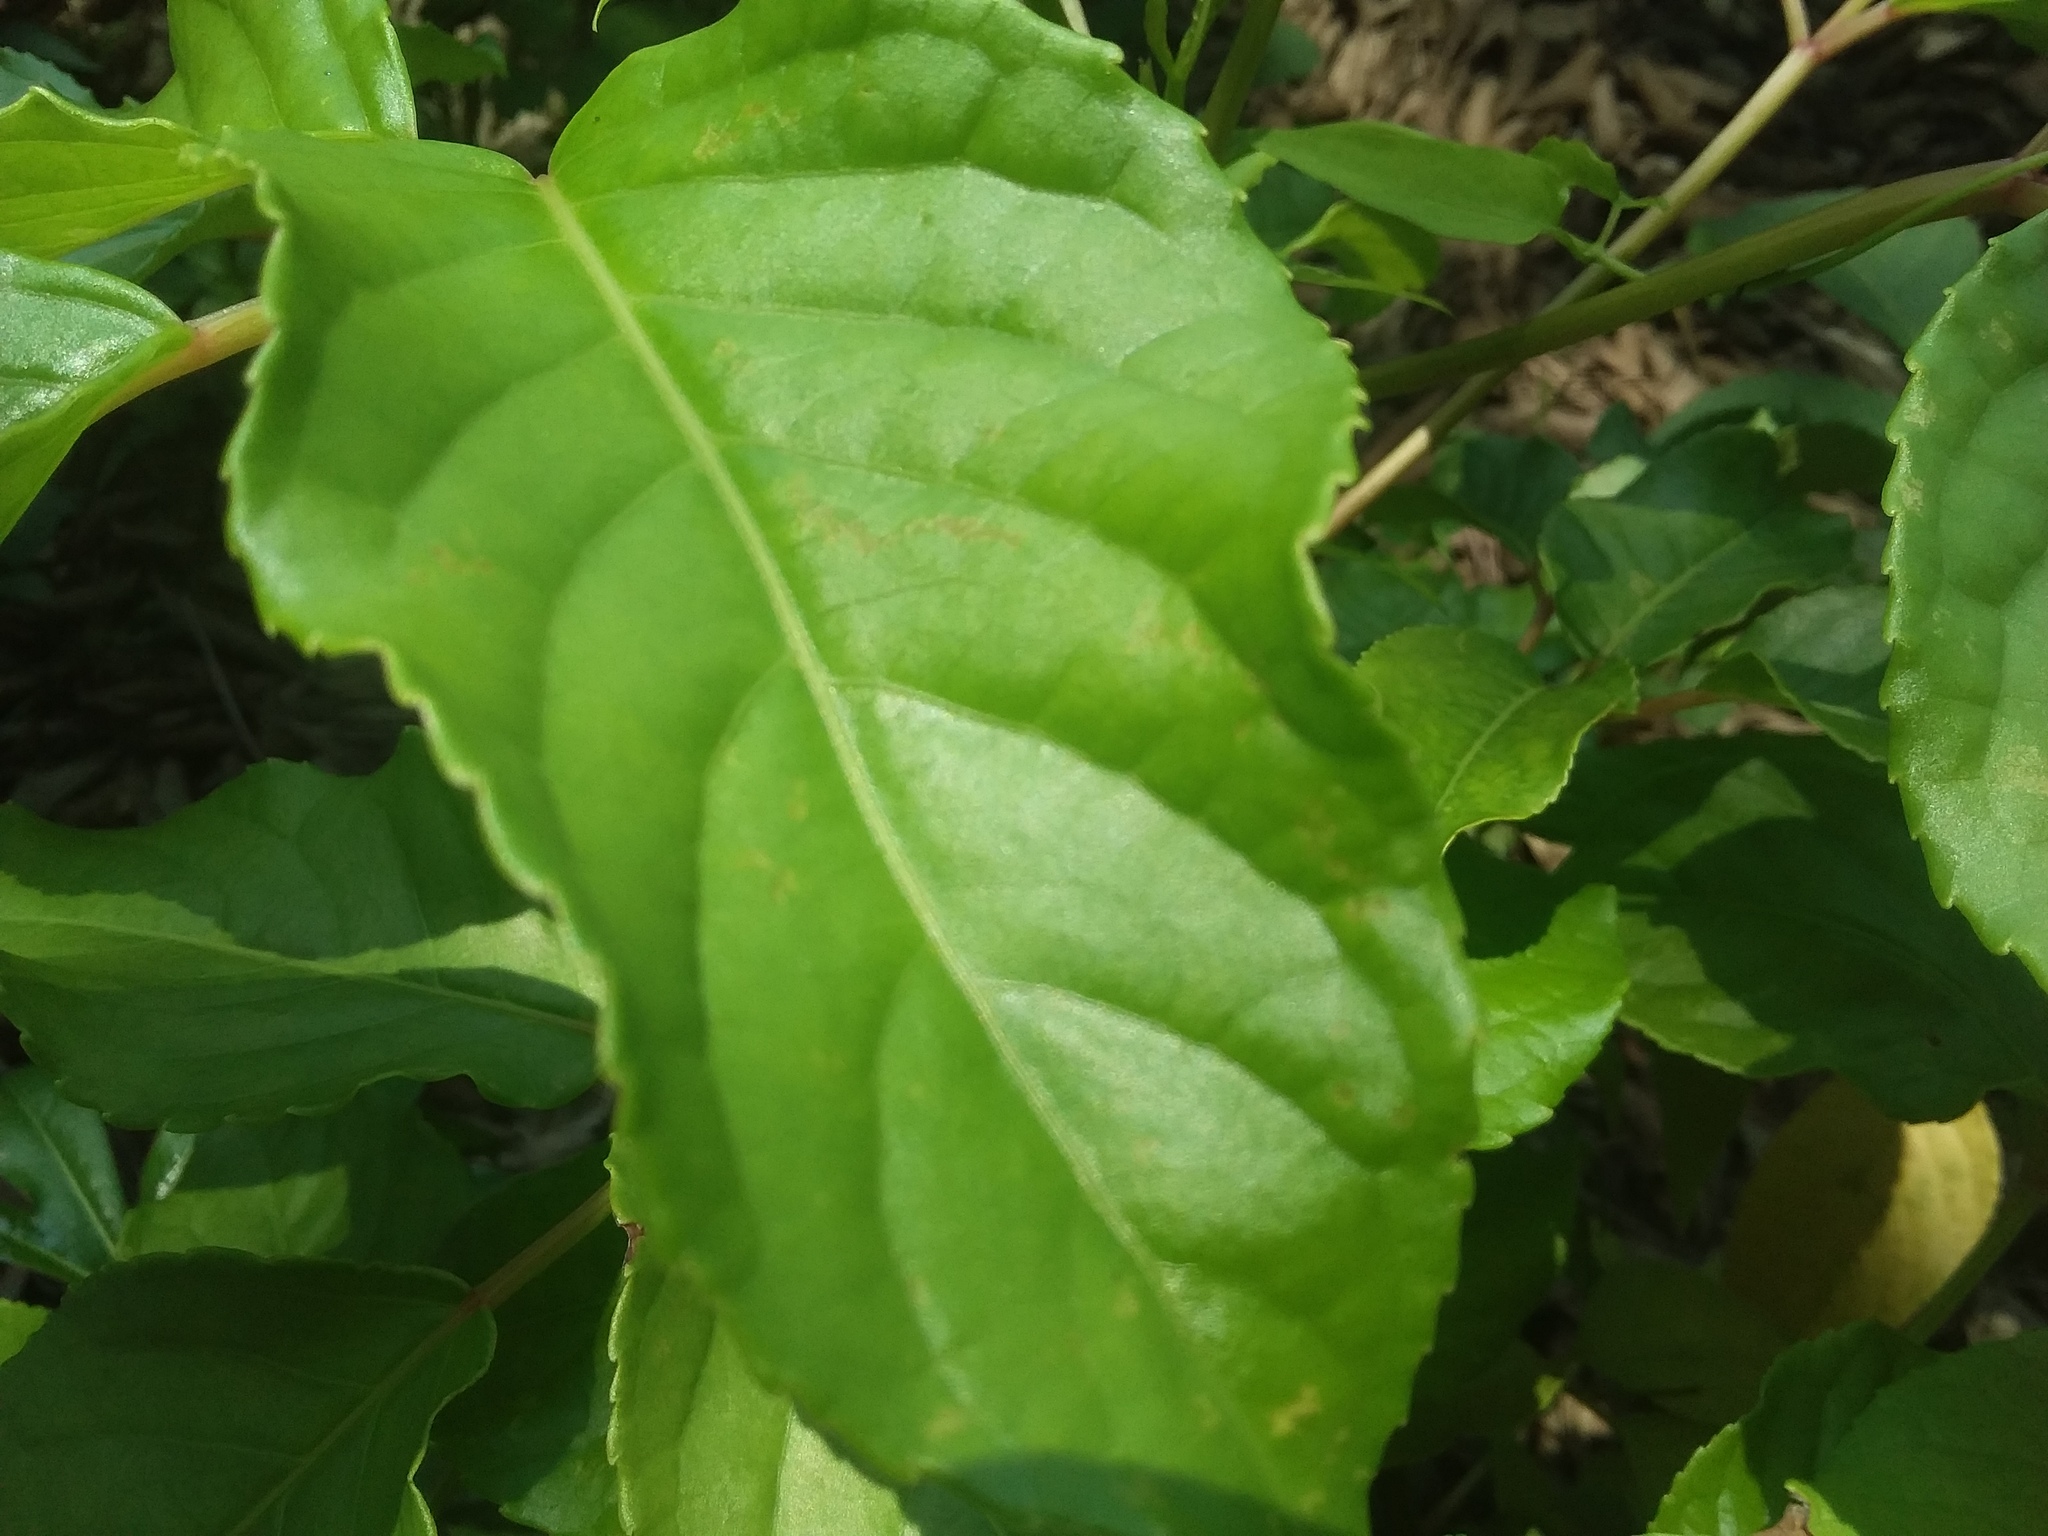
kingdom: Plantae
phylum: Tracheophyta
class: Magnoliopsida
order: Malpighiales
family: Phyllanthaceae
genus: Bischofia
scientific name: Bischofia javanica
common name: Javanese bishopwood
